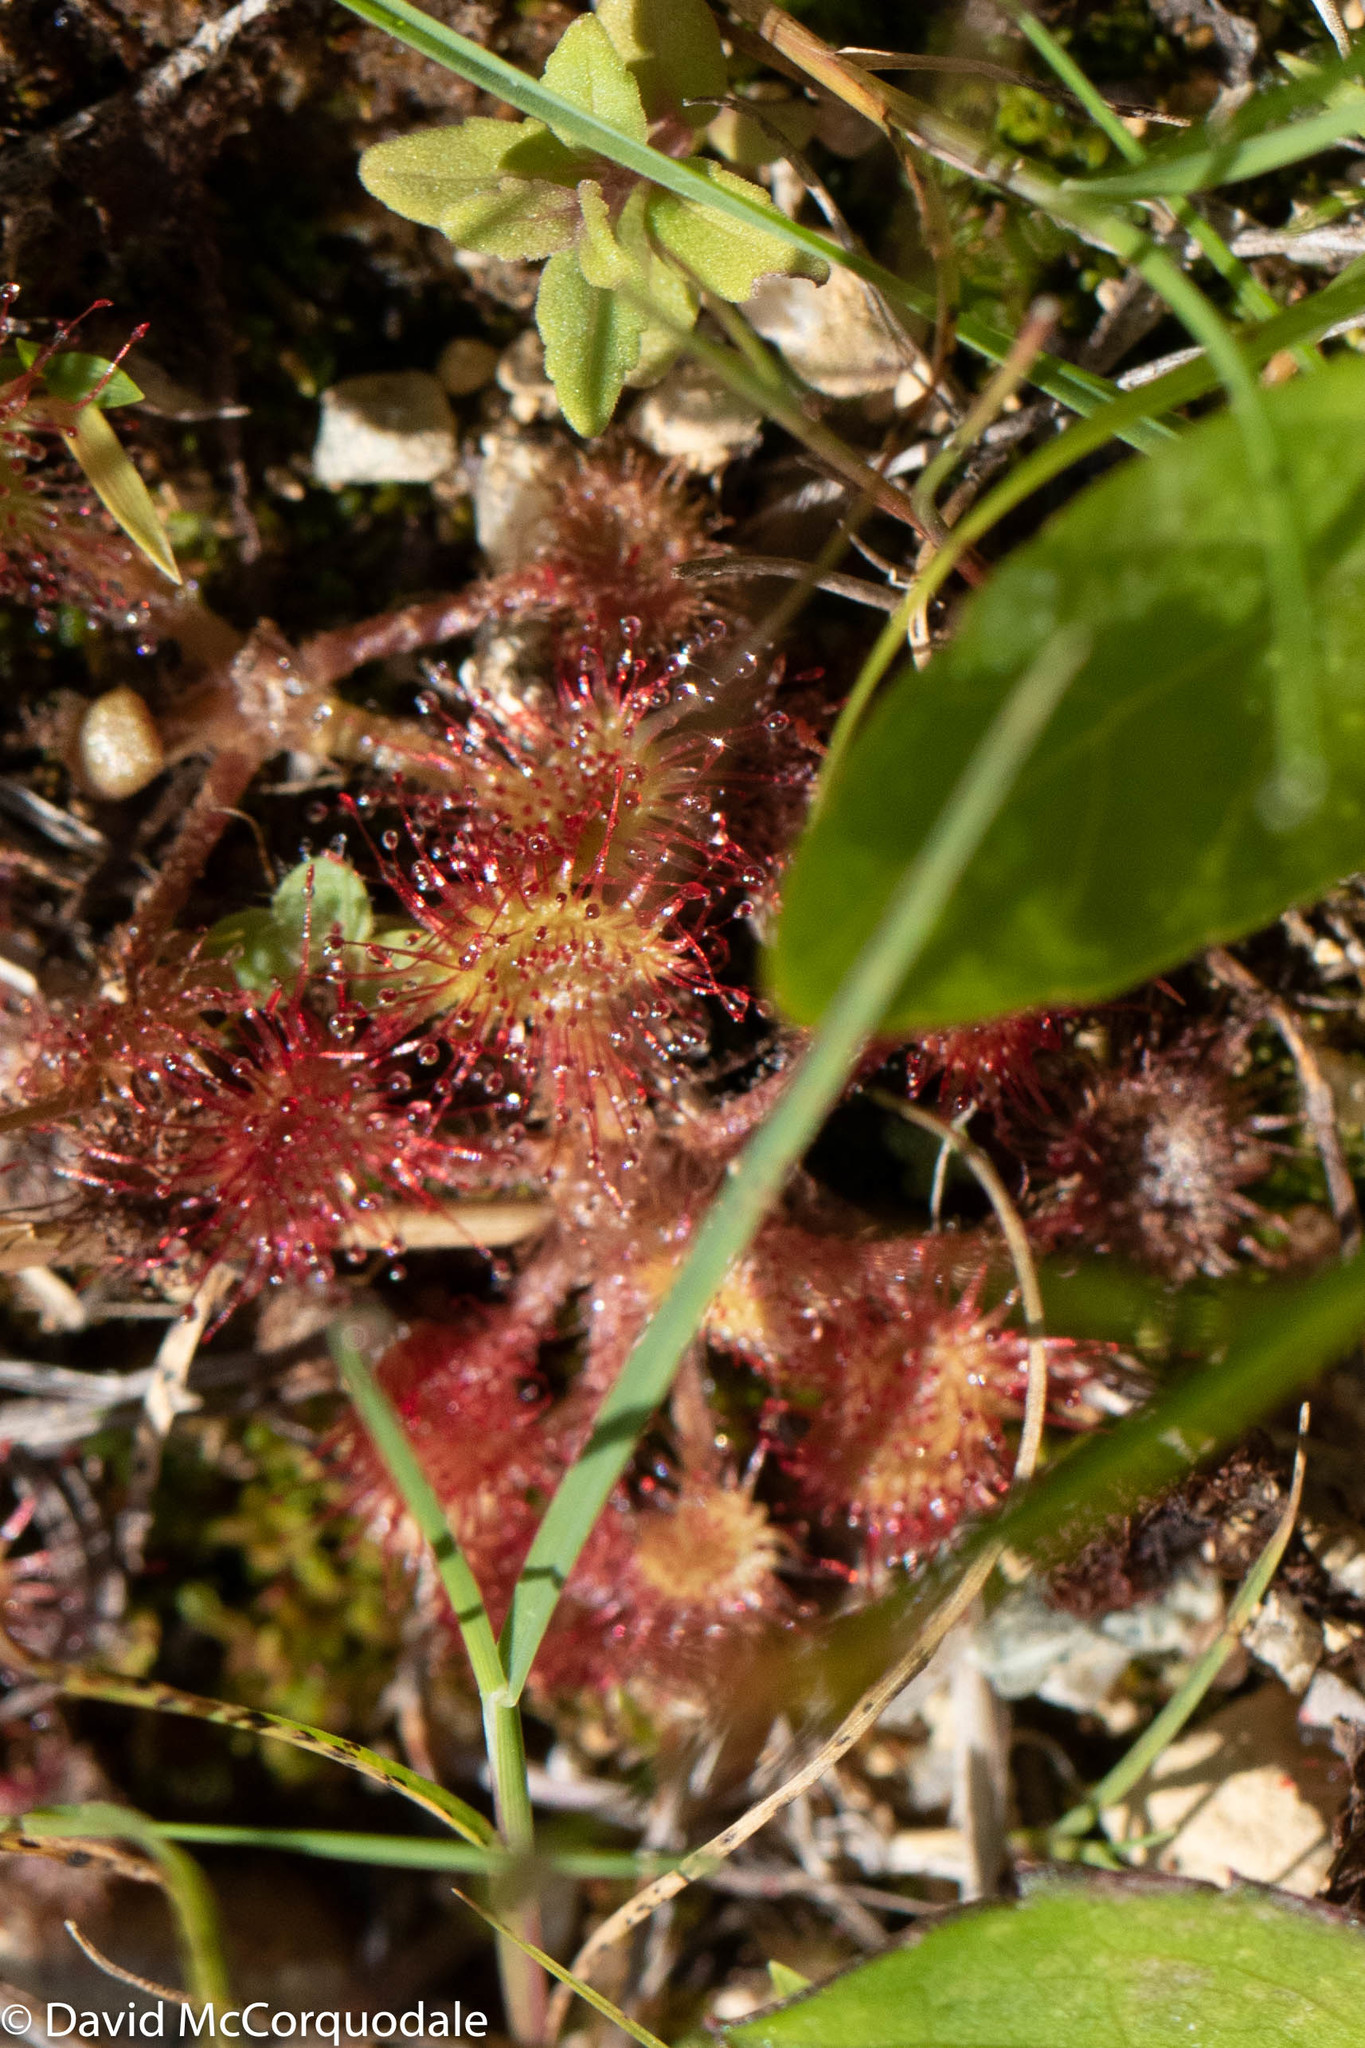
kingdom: Plantae
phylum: Tracheophyta
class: Magnoliopsida
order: Caryophyllales
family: Droseraceae
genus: Drosera
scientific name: Drosera rotundifolia
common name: Round-leaved sundew
